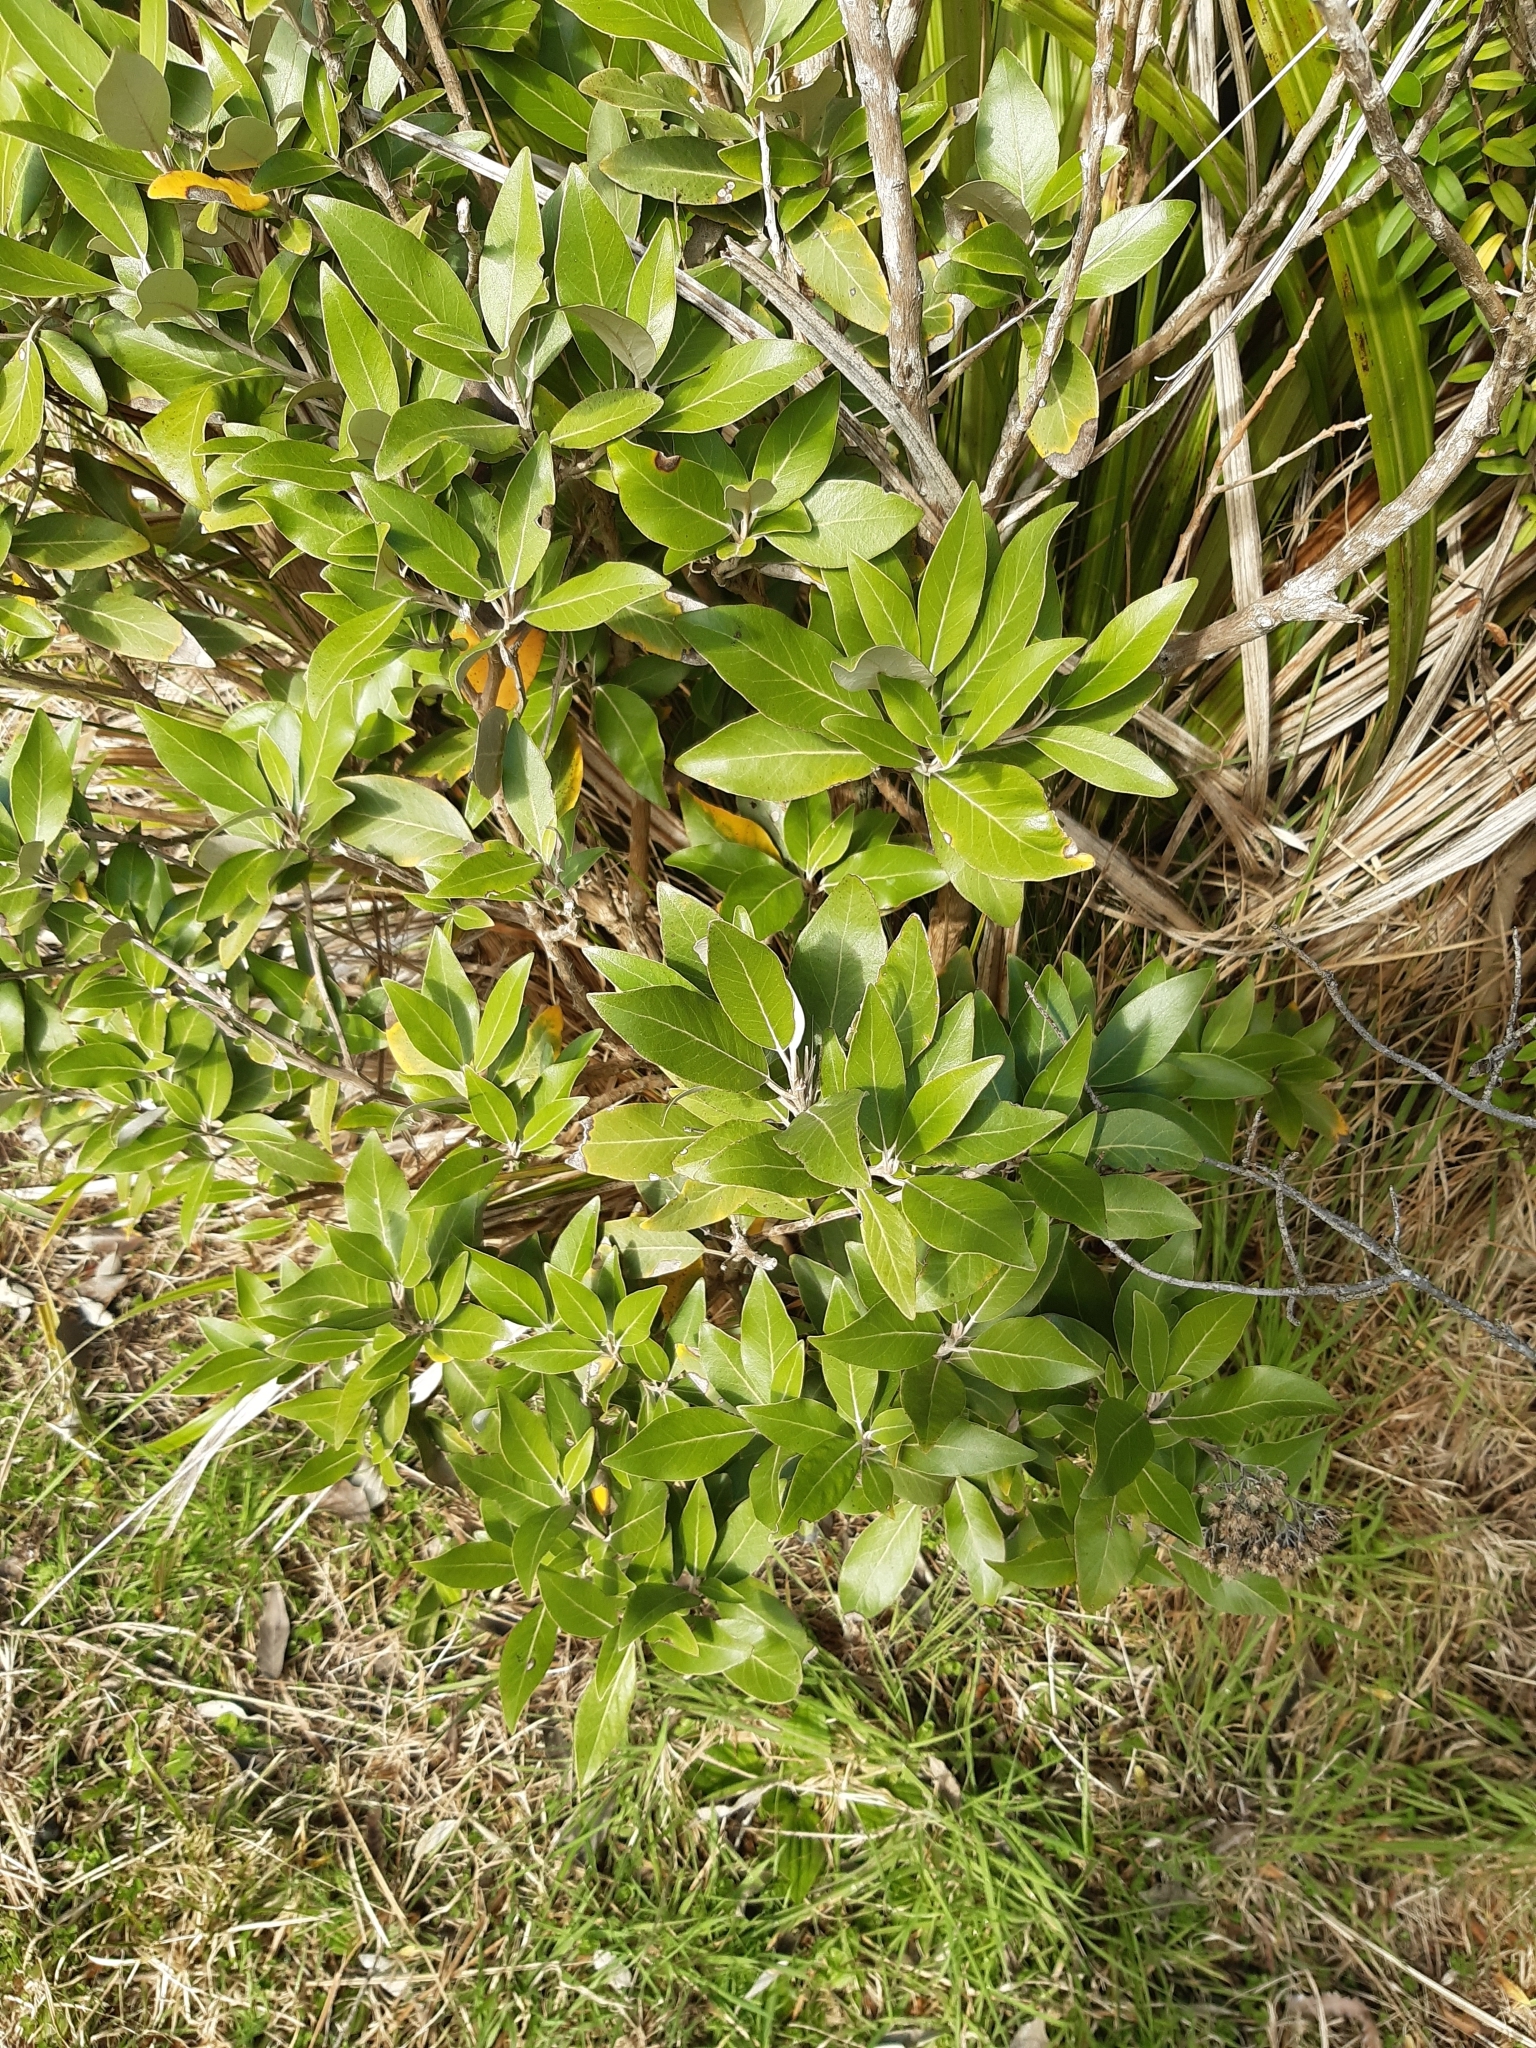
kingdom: Plantae
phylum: Tracheophyta
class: Magnoliopsida
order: Asterales
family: Asteraceae
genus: Olearia
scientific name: Olearia avicenniifolia
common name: Mangrove-leaf daisybush
